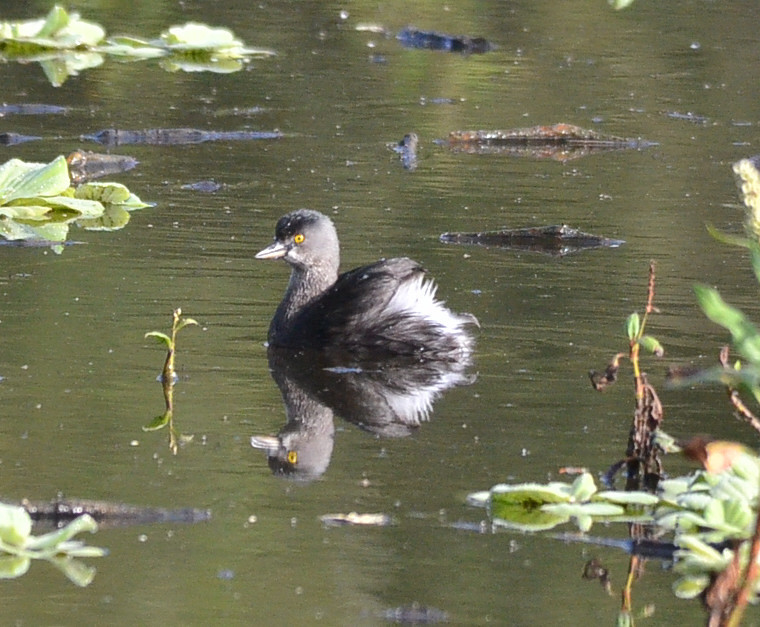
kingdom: Animalia
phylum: Chordata
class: Aves
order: Podicipediformes
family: Podicipedidae
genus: Tachybaptus
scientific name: Tachybaptus dominicus
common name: Least grebe
